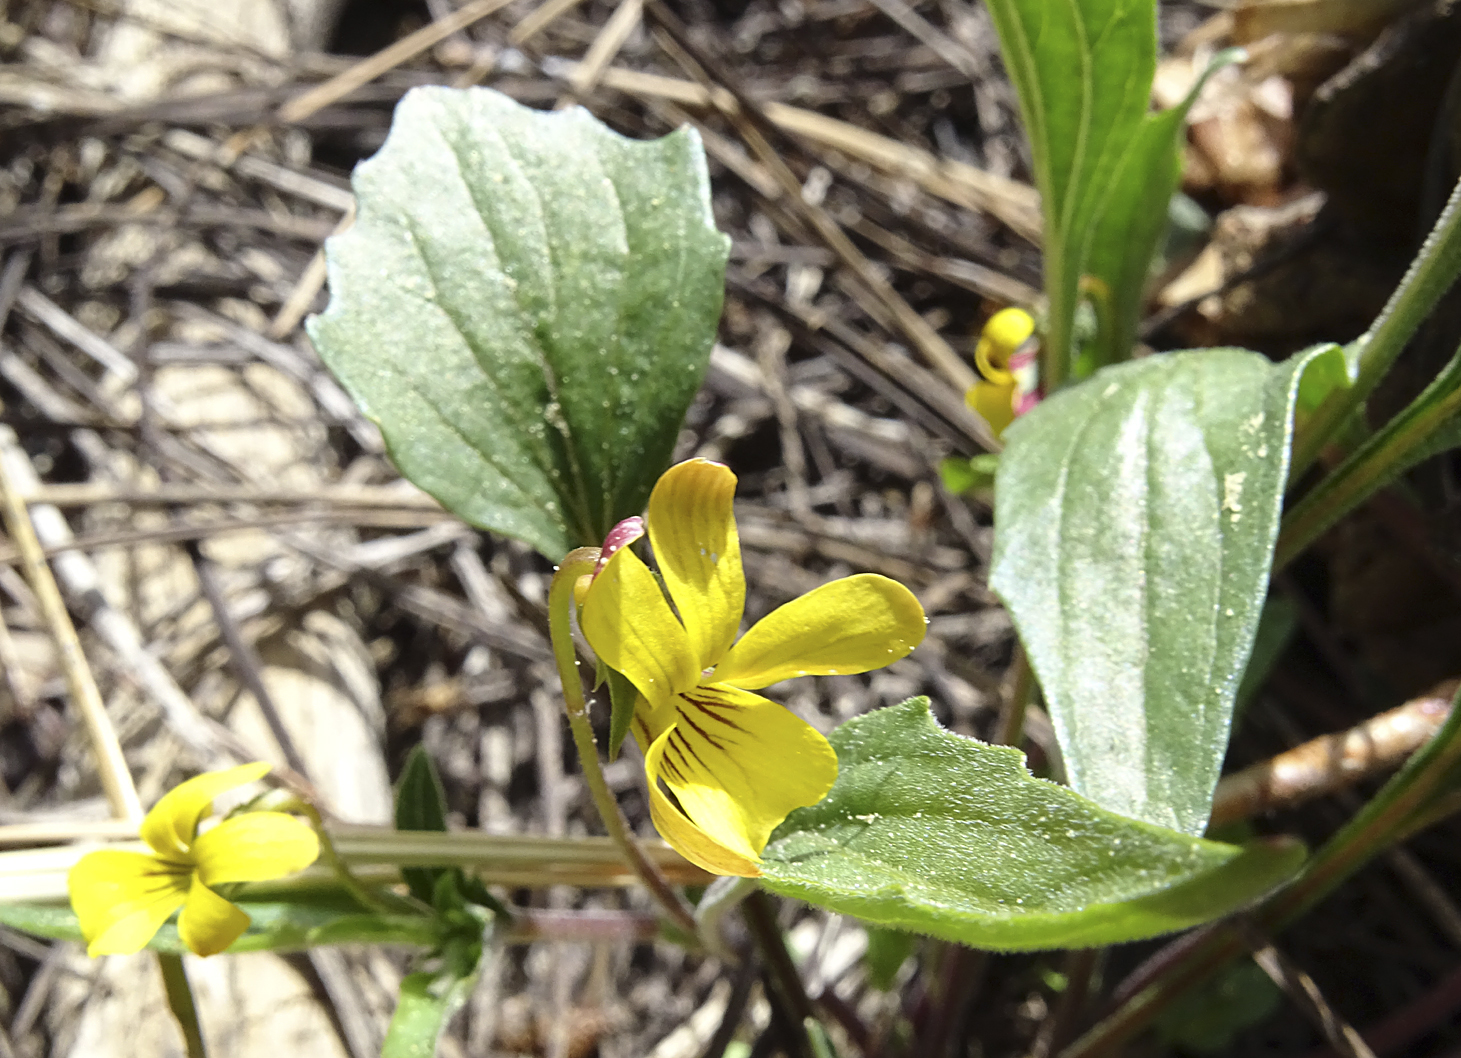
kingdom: Plantae
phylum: Tracheophyta
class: Magnoliopsida
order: Malpighiales
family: Violaceae
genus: Viola
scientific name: Viola pinetorum
